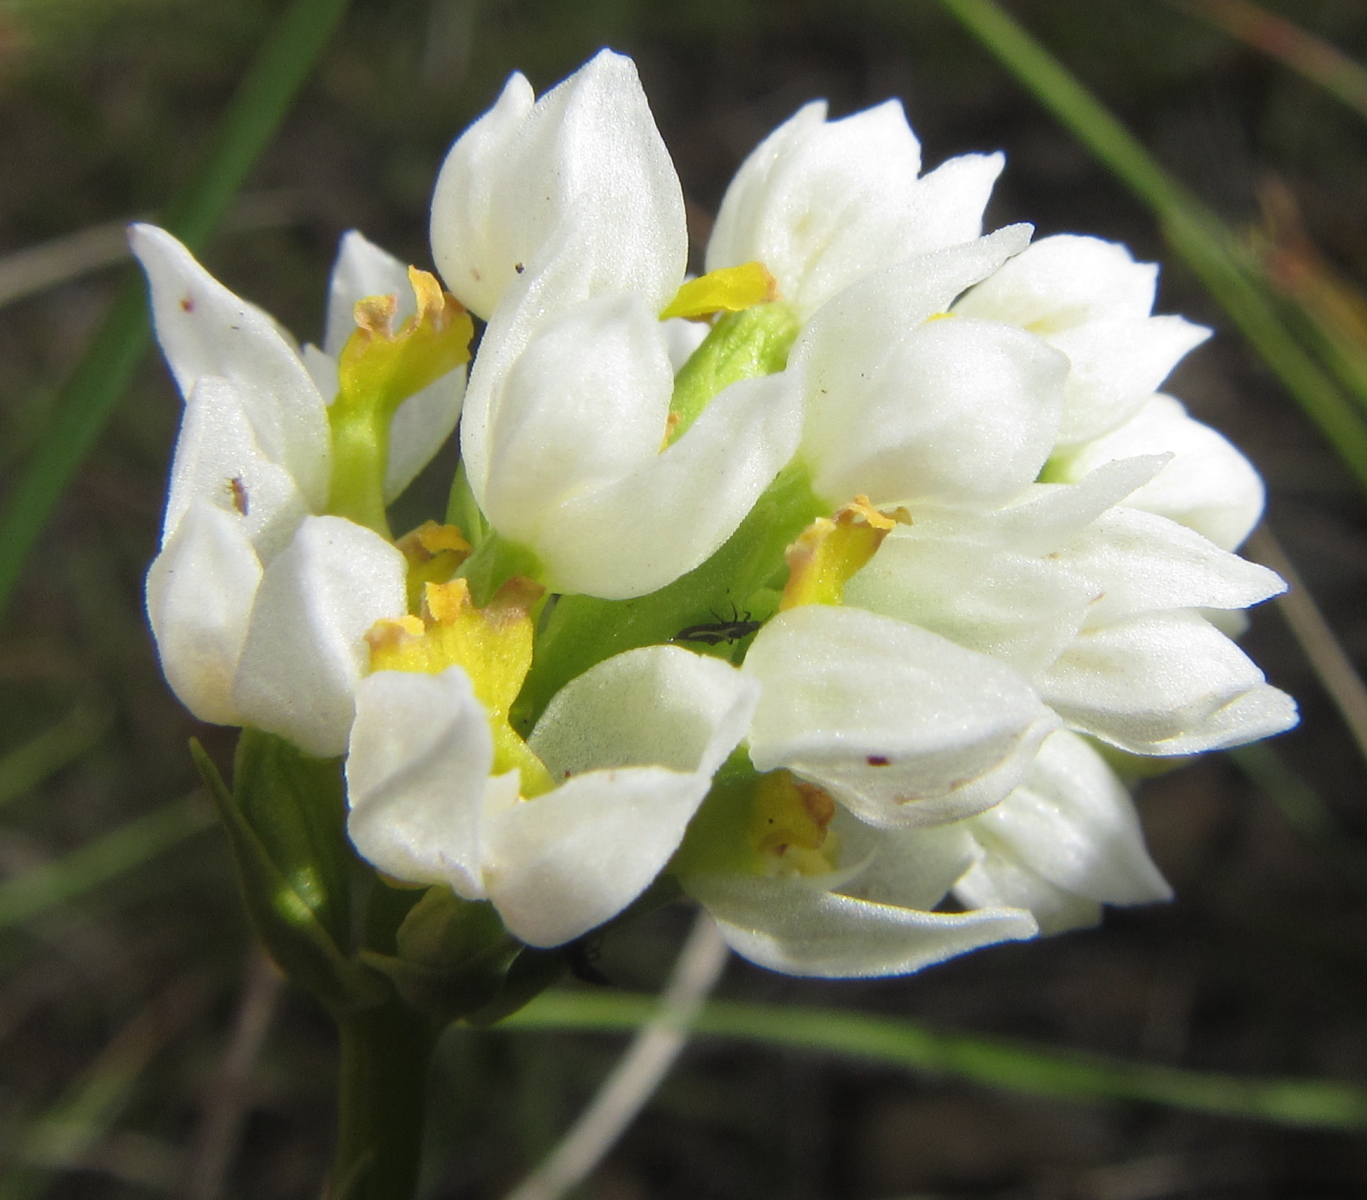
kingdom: Plantae
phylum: Tracheophyta
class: Liliopsida
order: Asparagales
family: Orchidaceae
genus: Schizochilus
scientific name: Schizochilus flexuosus
